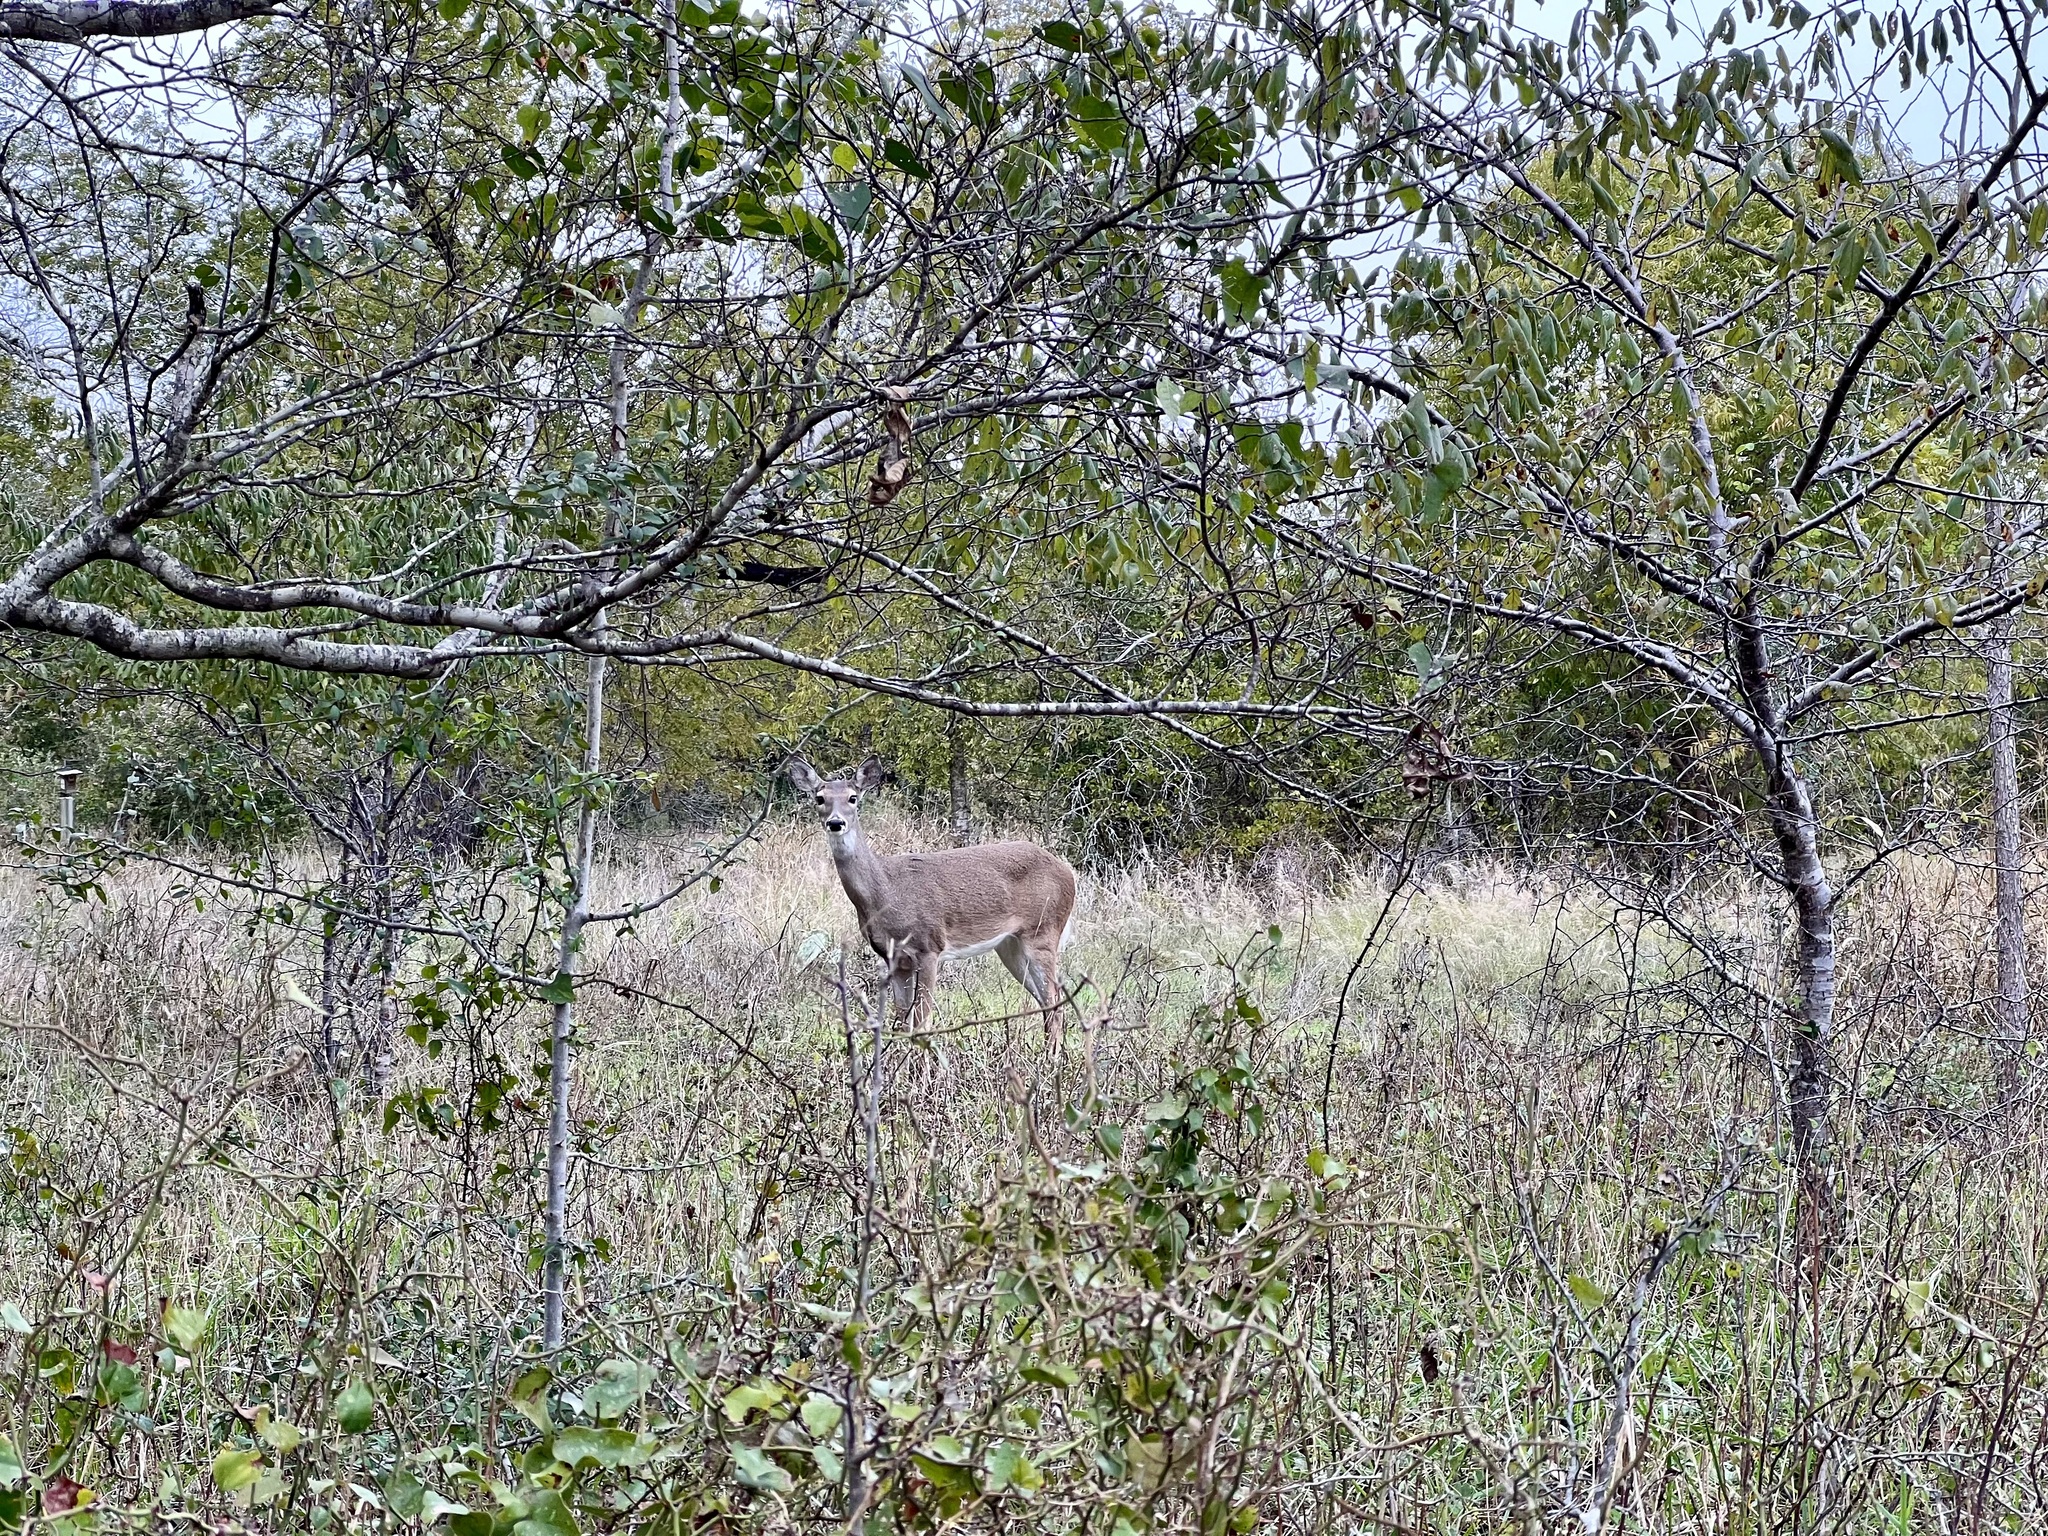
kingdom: Animalia
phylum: Chordata
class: Mammalia
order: Artiodactyla
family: Cervidae
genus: Odocoileus
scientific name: Odocoileus virginianus
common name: White-tailed deer
